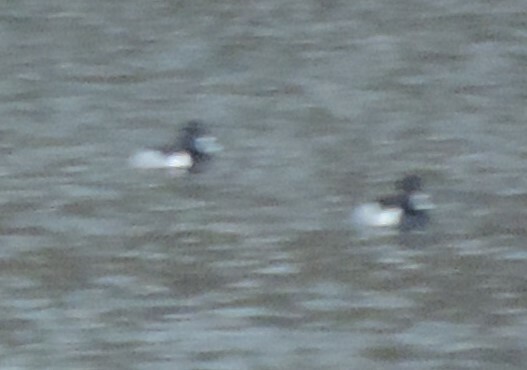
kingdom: Animalia
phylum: Chordata
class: Aves
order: Anseriformes
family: Anatidae
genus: Aythya
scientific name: Aythya collaris
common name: Ring-necked duck
